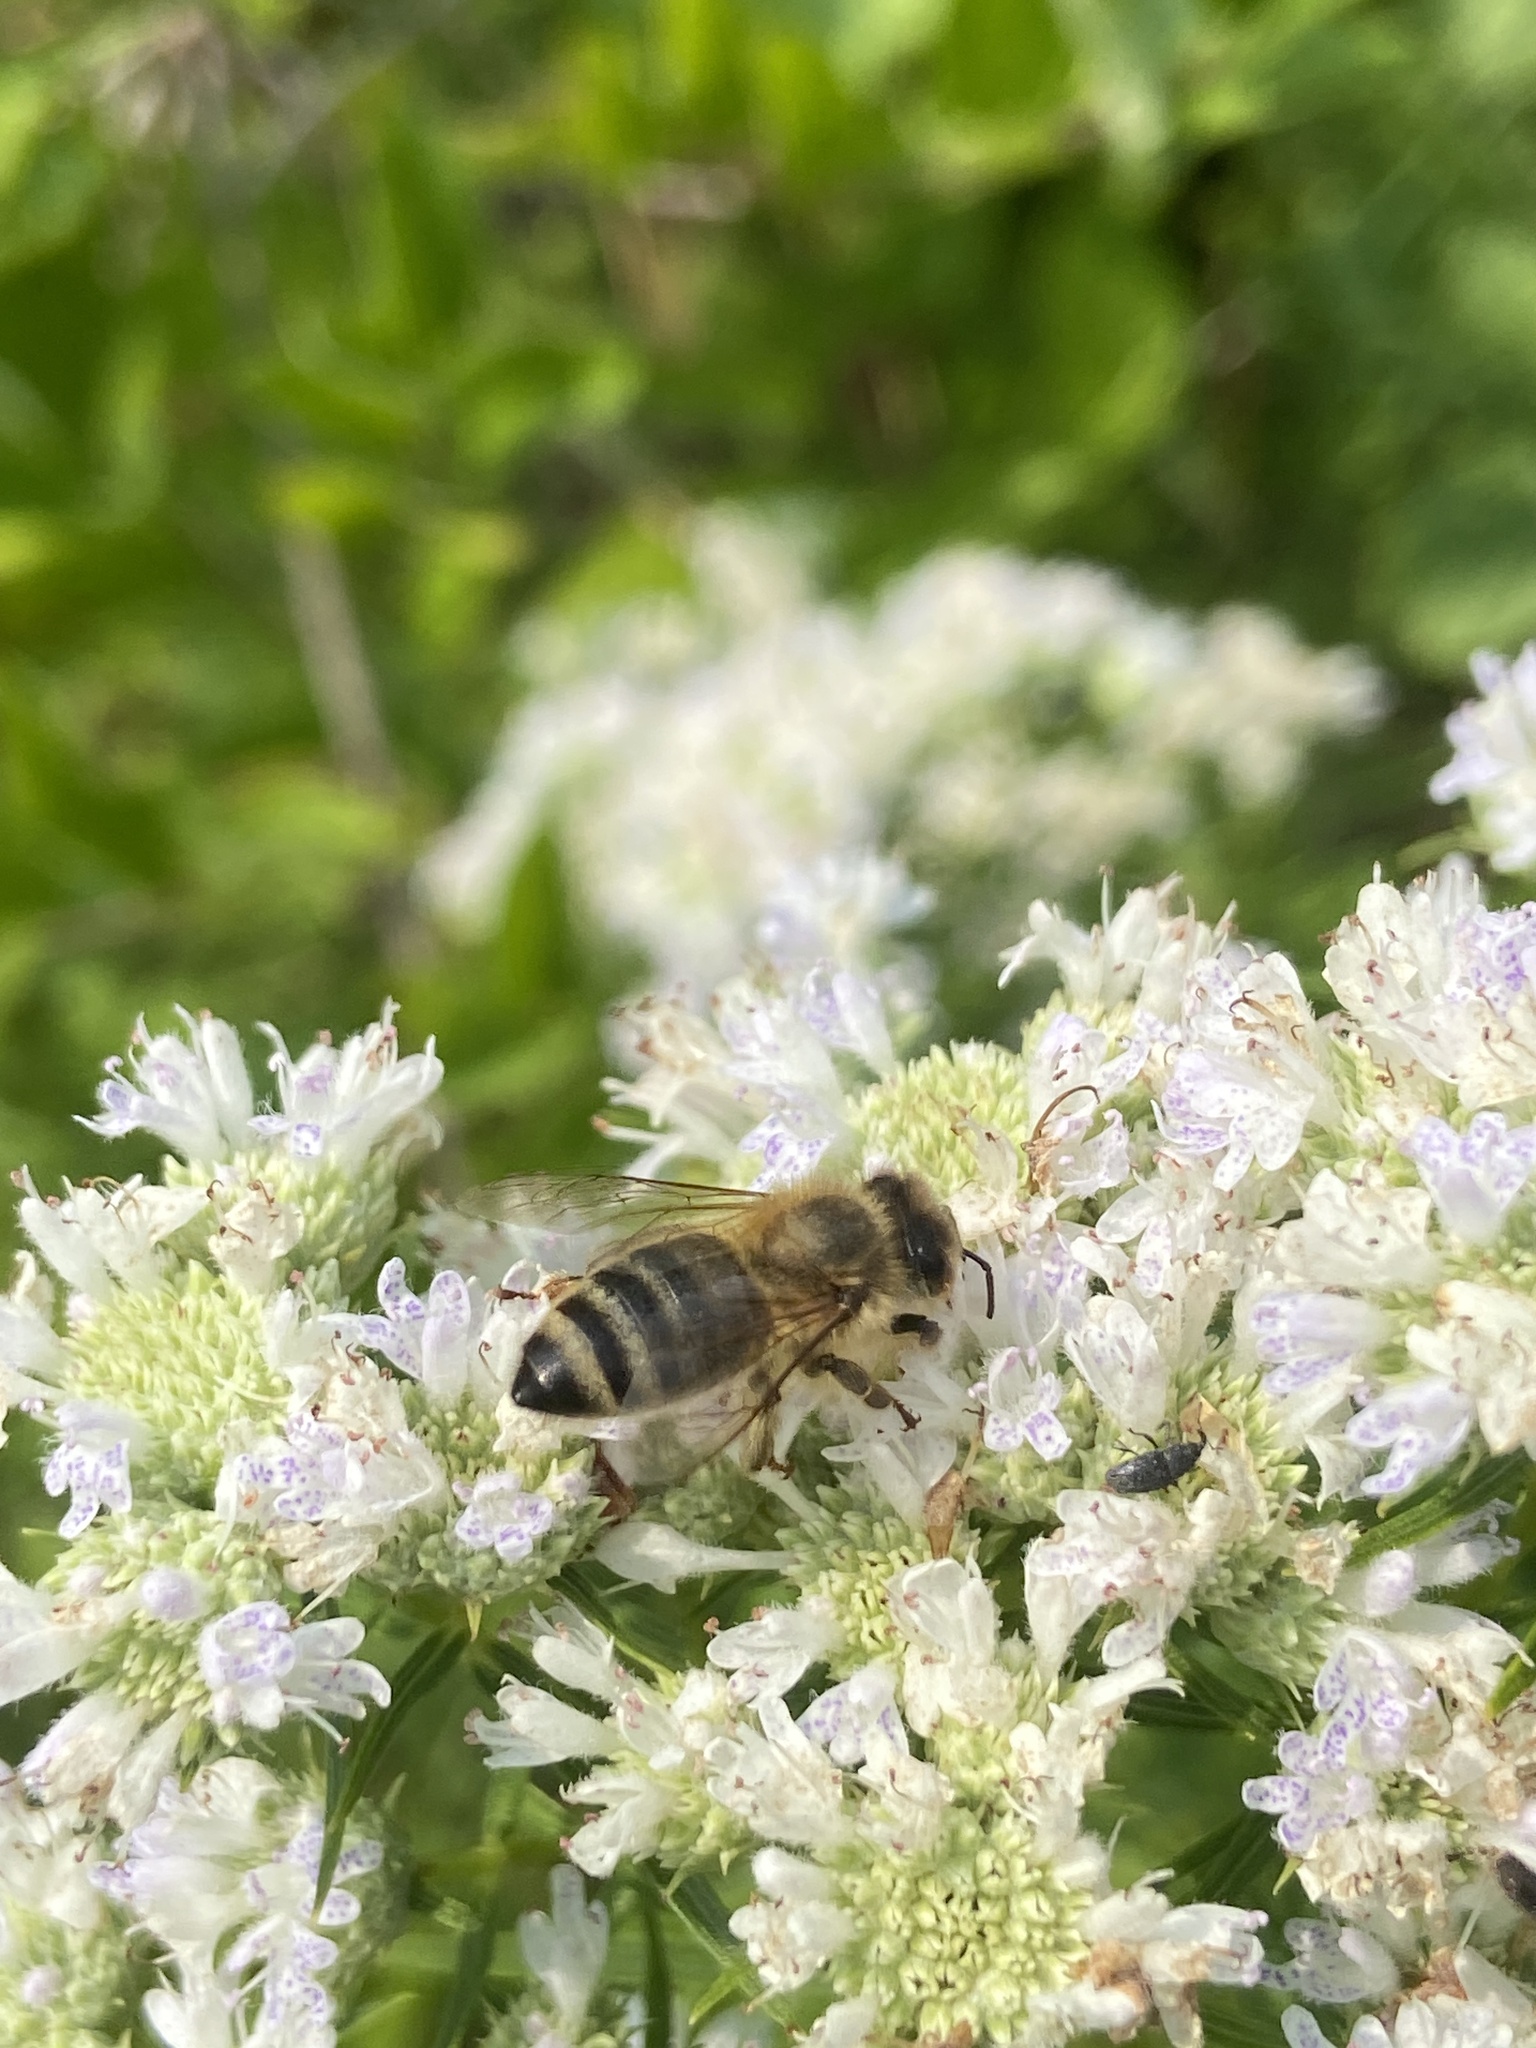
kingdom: Animalia
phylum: Arthropoda
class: Insecta
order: Hymenoptera
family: Apidae
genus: Apis
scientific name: Apis mellifera
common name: Honey bee
